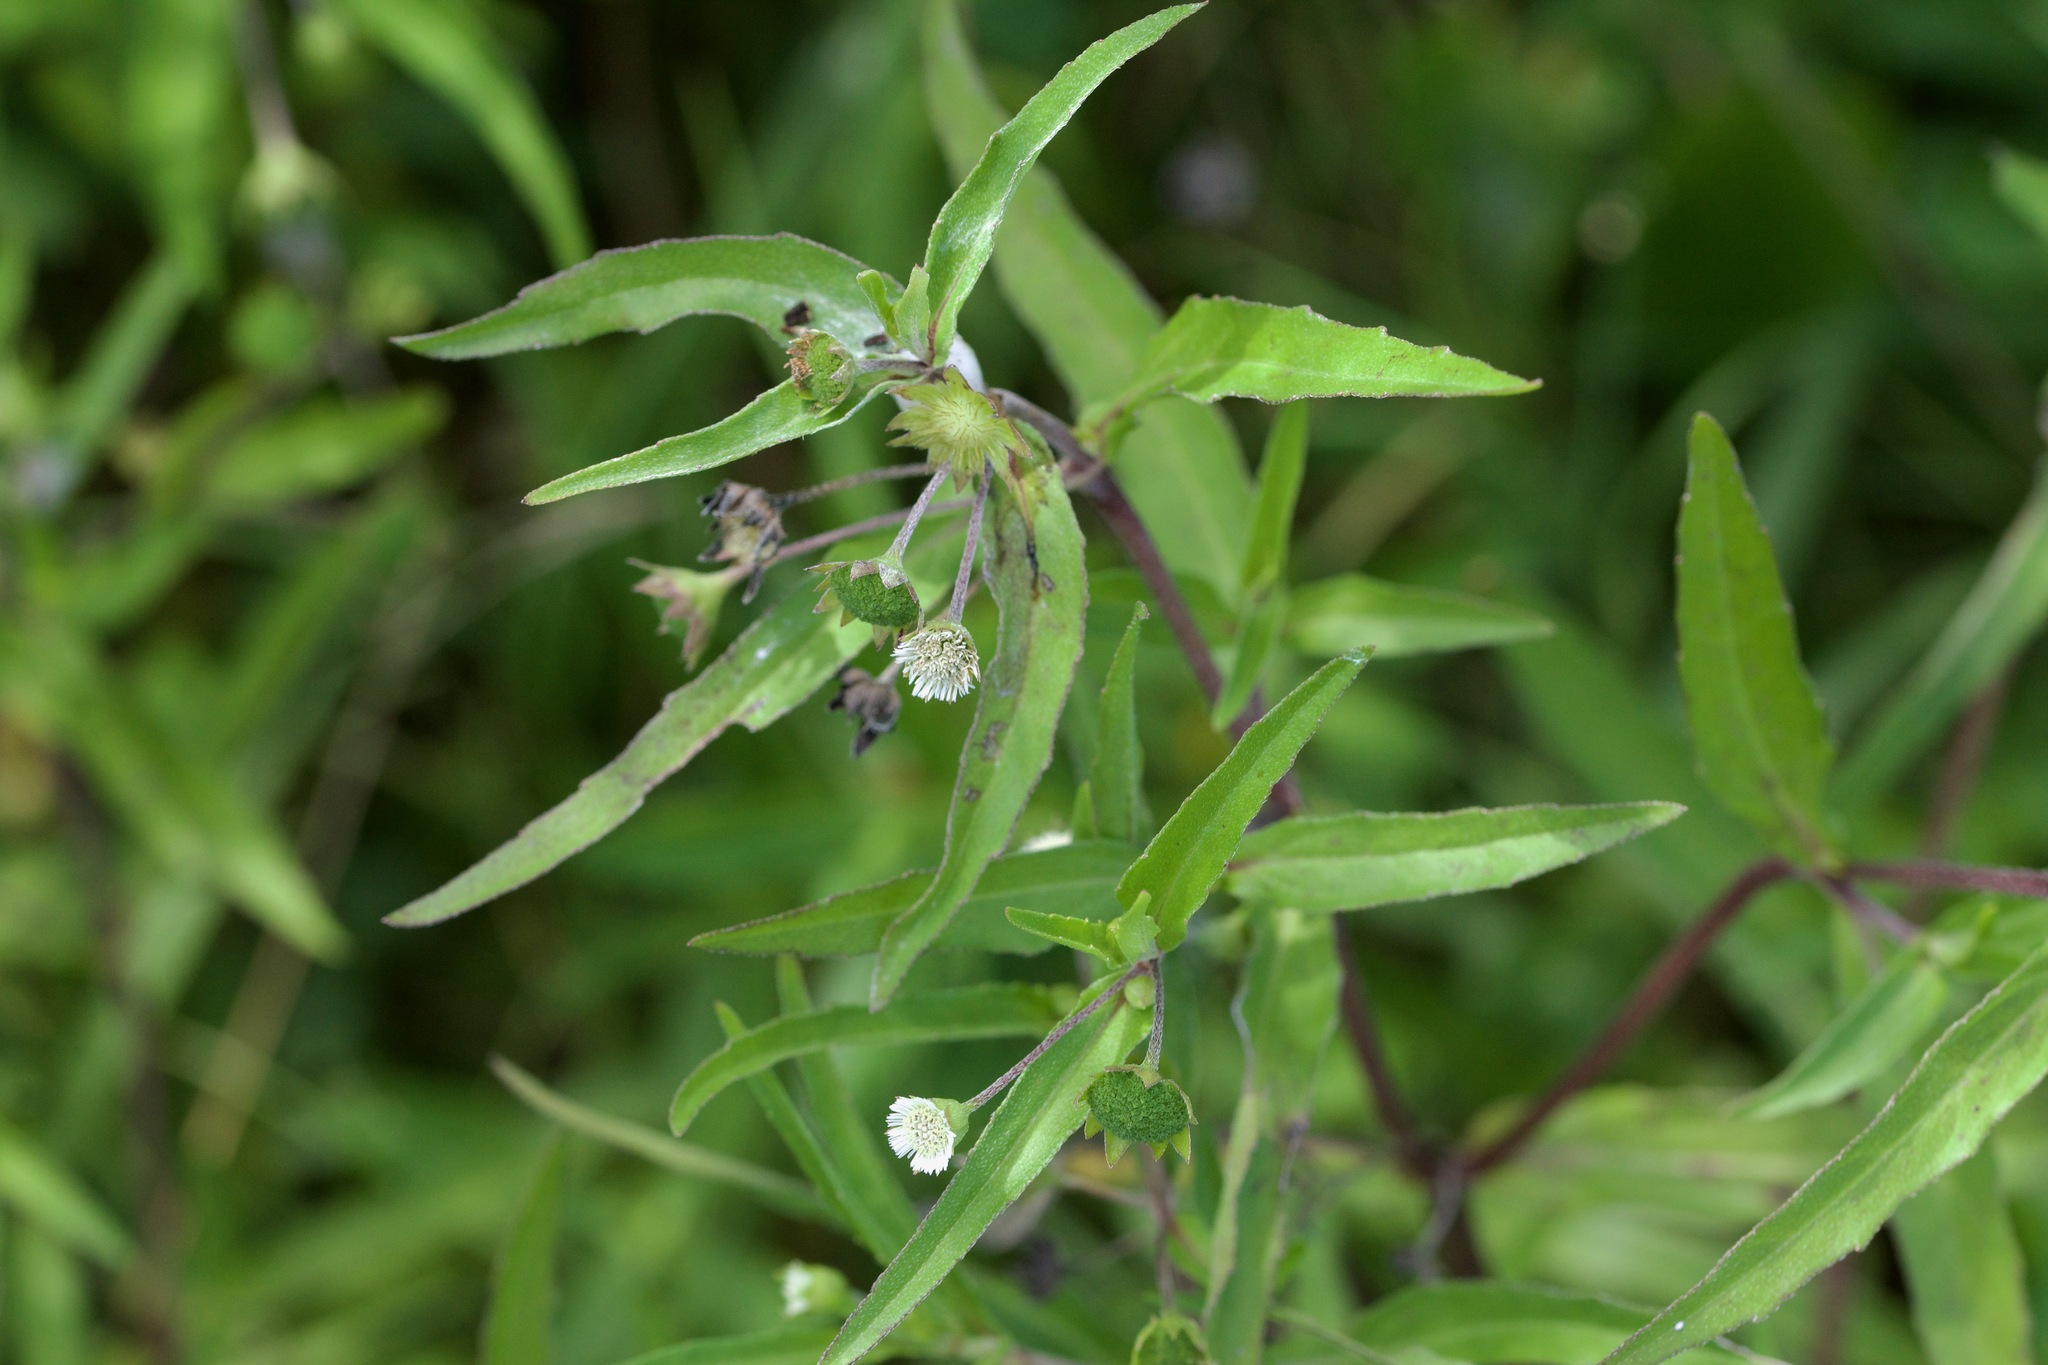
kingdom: Plantae
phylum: Tracheophyta
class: Magnoliopsida
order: Asterales
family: Asteraceae
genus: Eclipta
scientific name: Eclipta prostrata
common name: False daisy
